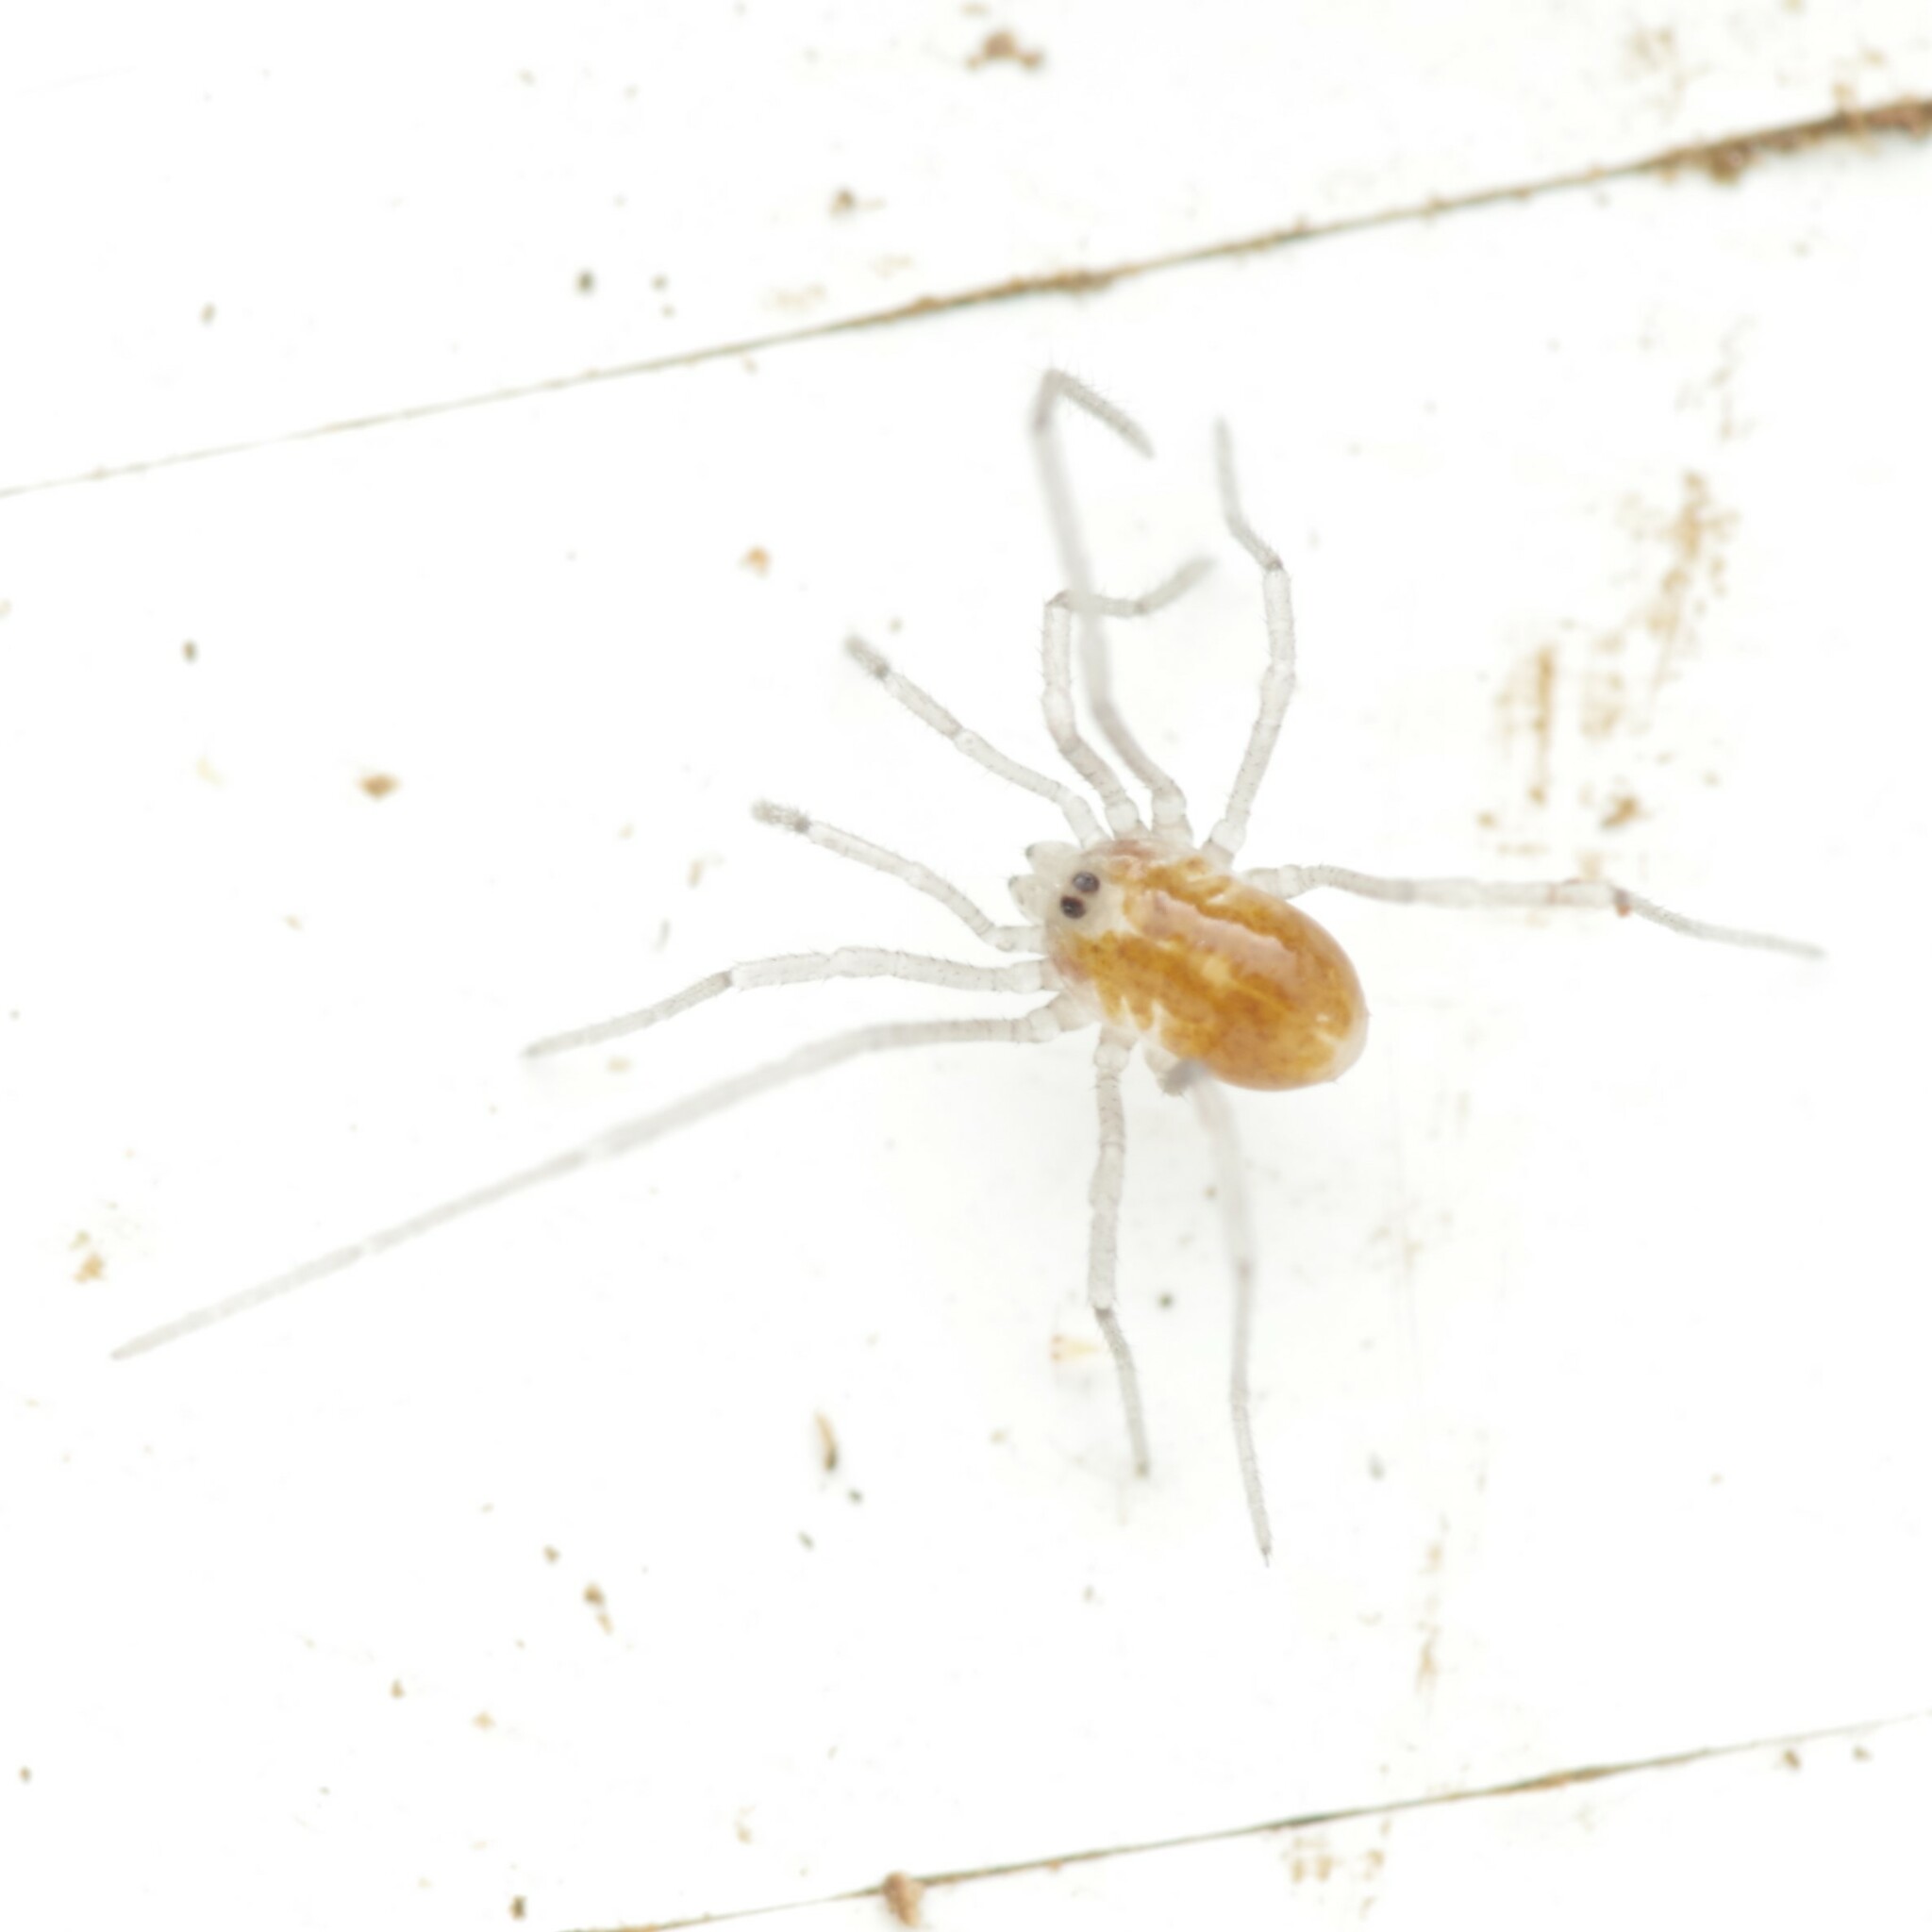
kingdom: Animalia
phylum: Arthropoda
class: Arachnida
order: Opiliones
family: Nemastomatidae
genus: Mitostoma
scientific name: Mitostoma chrysomelas
